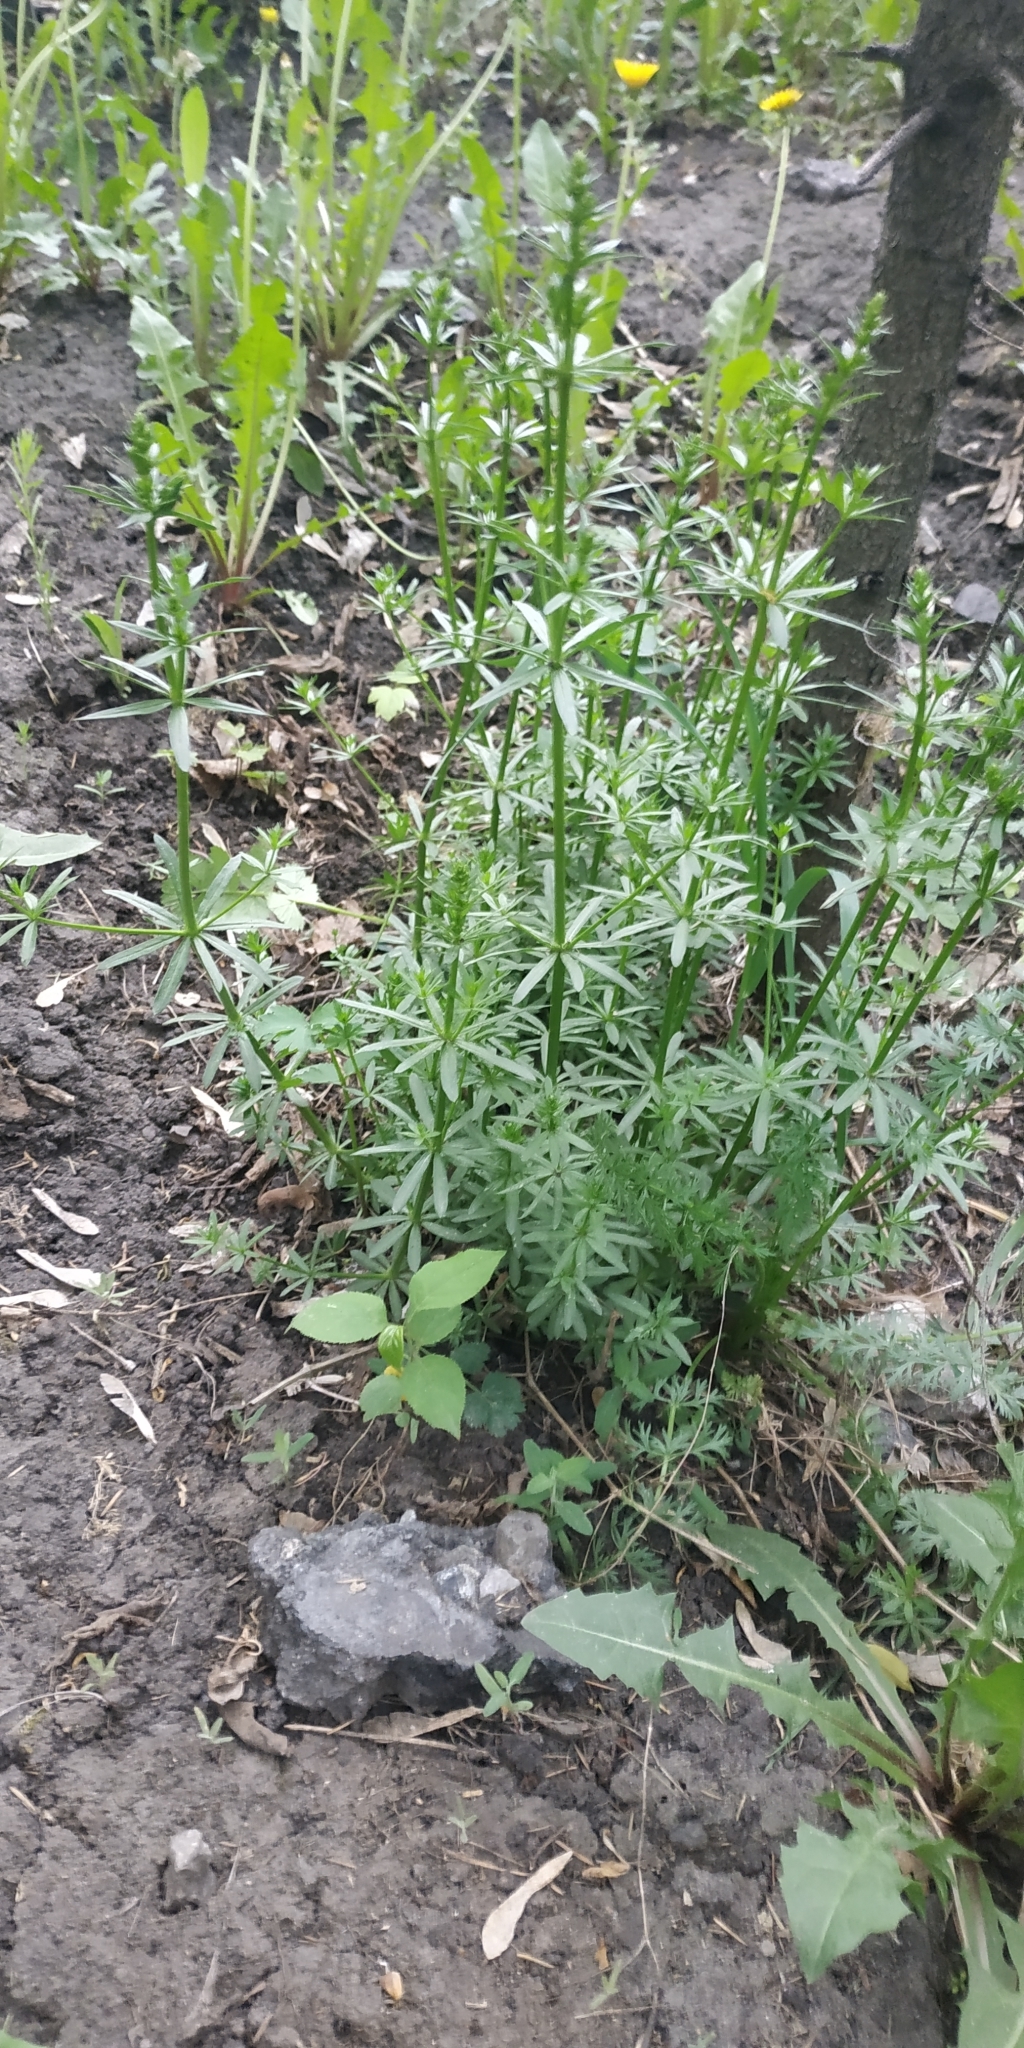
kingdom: Plantae
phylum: Tracheophyta
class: Magnoliopsida
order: Gentianales
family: Rubiaceae
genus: Galium
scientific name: Galium mollugo
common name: Hedge bedstraw
